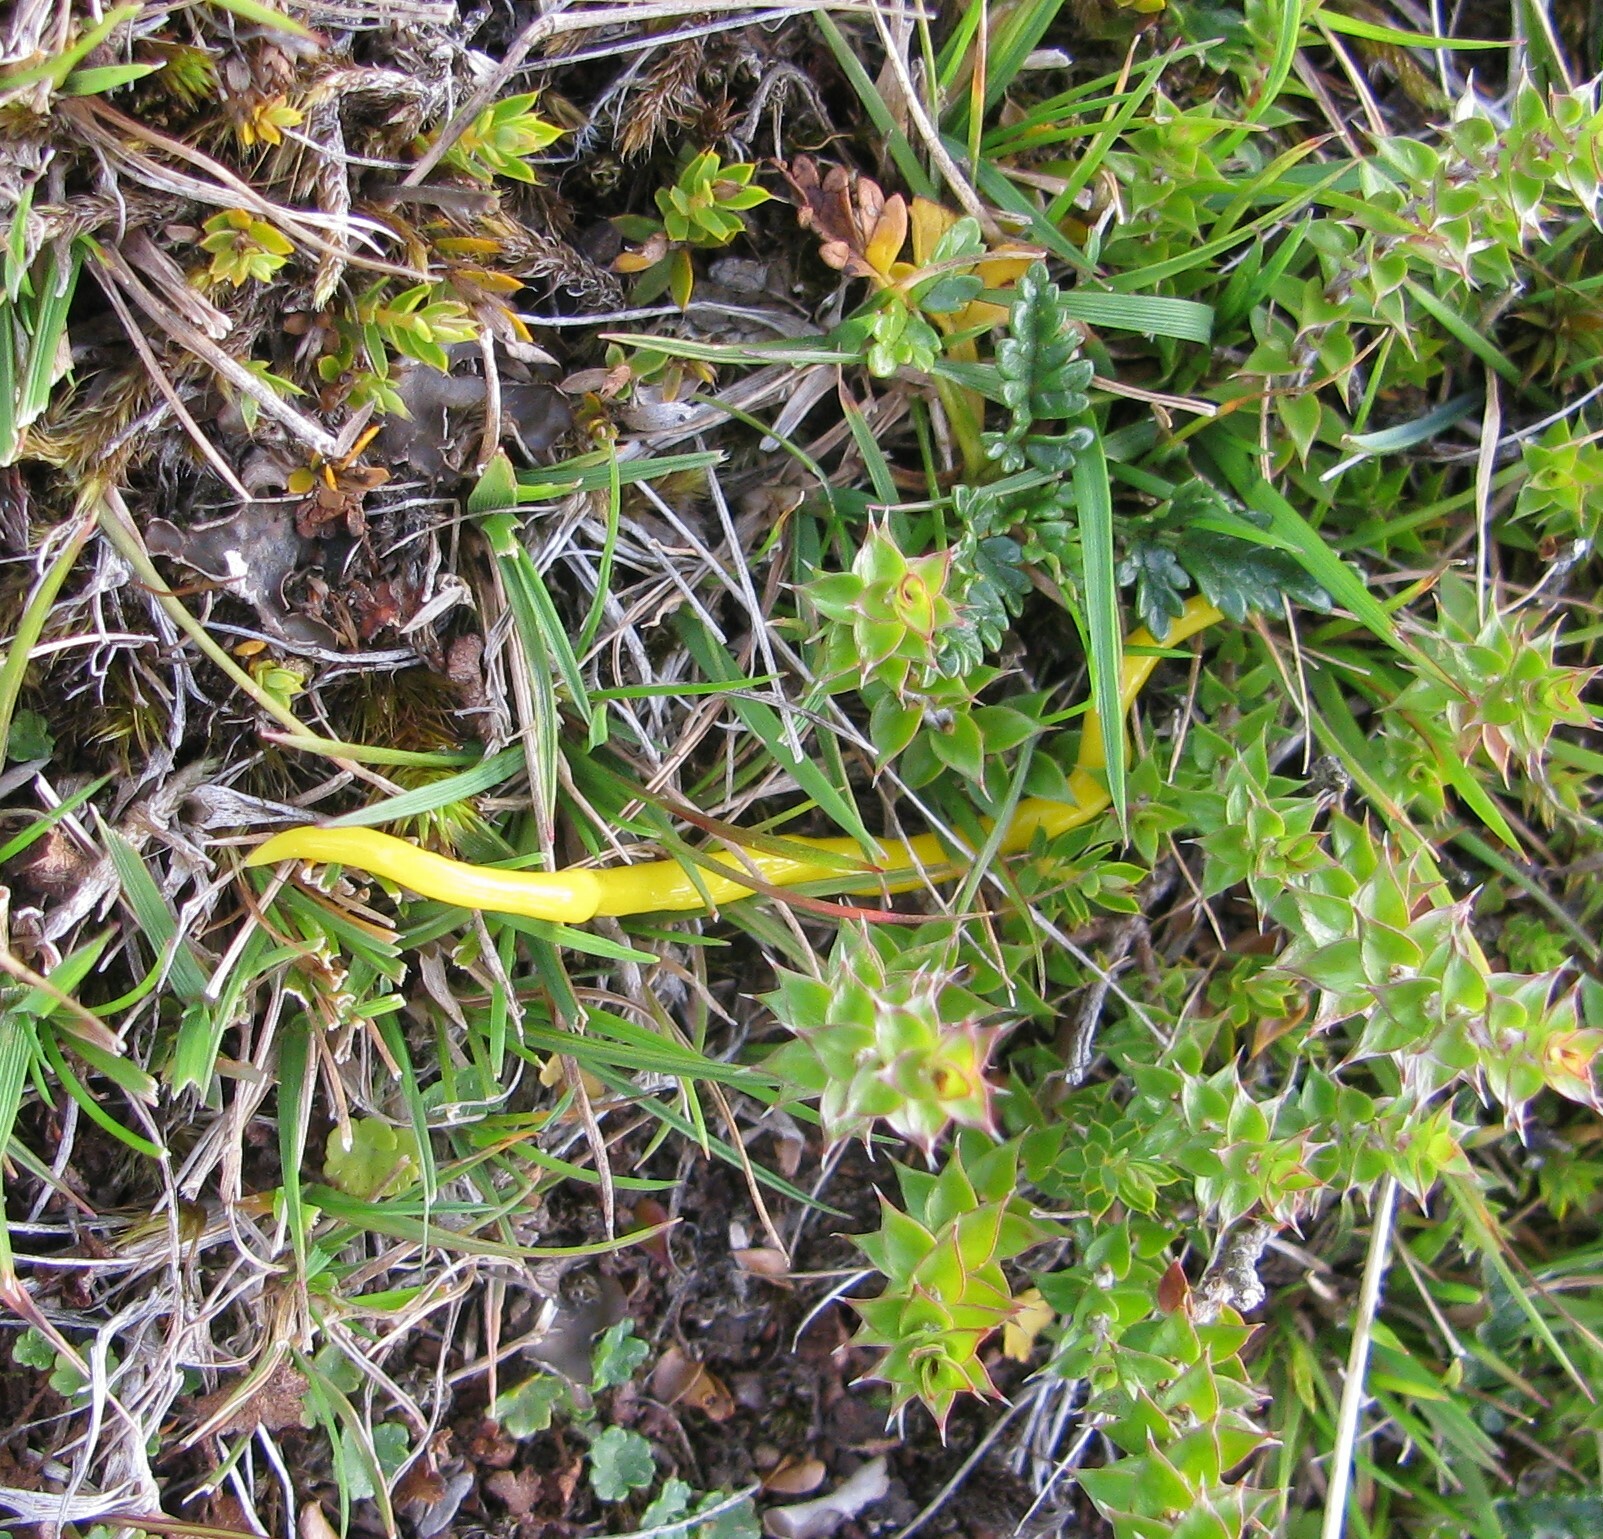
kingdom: Animalia
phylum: Platyhelminthes
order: Tricladida
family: Geoplanidae
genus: Fletchamia
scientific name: Fletchamia sugdeni
